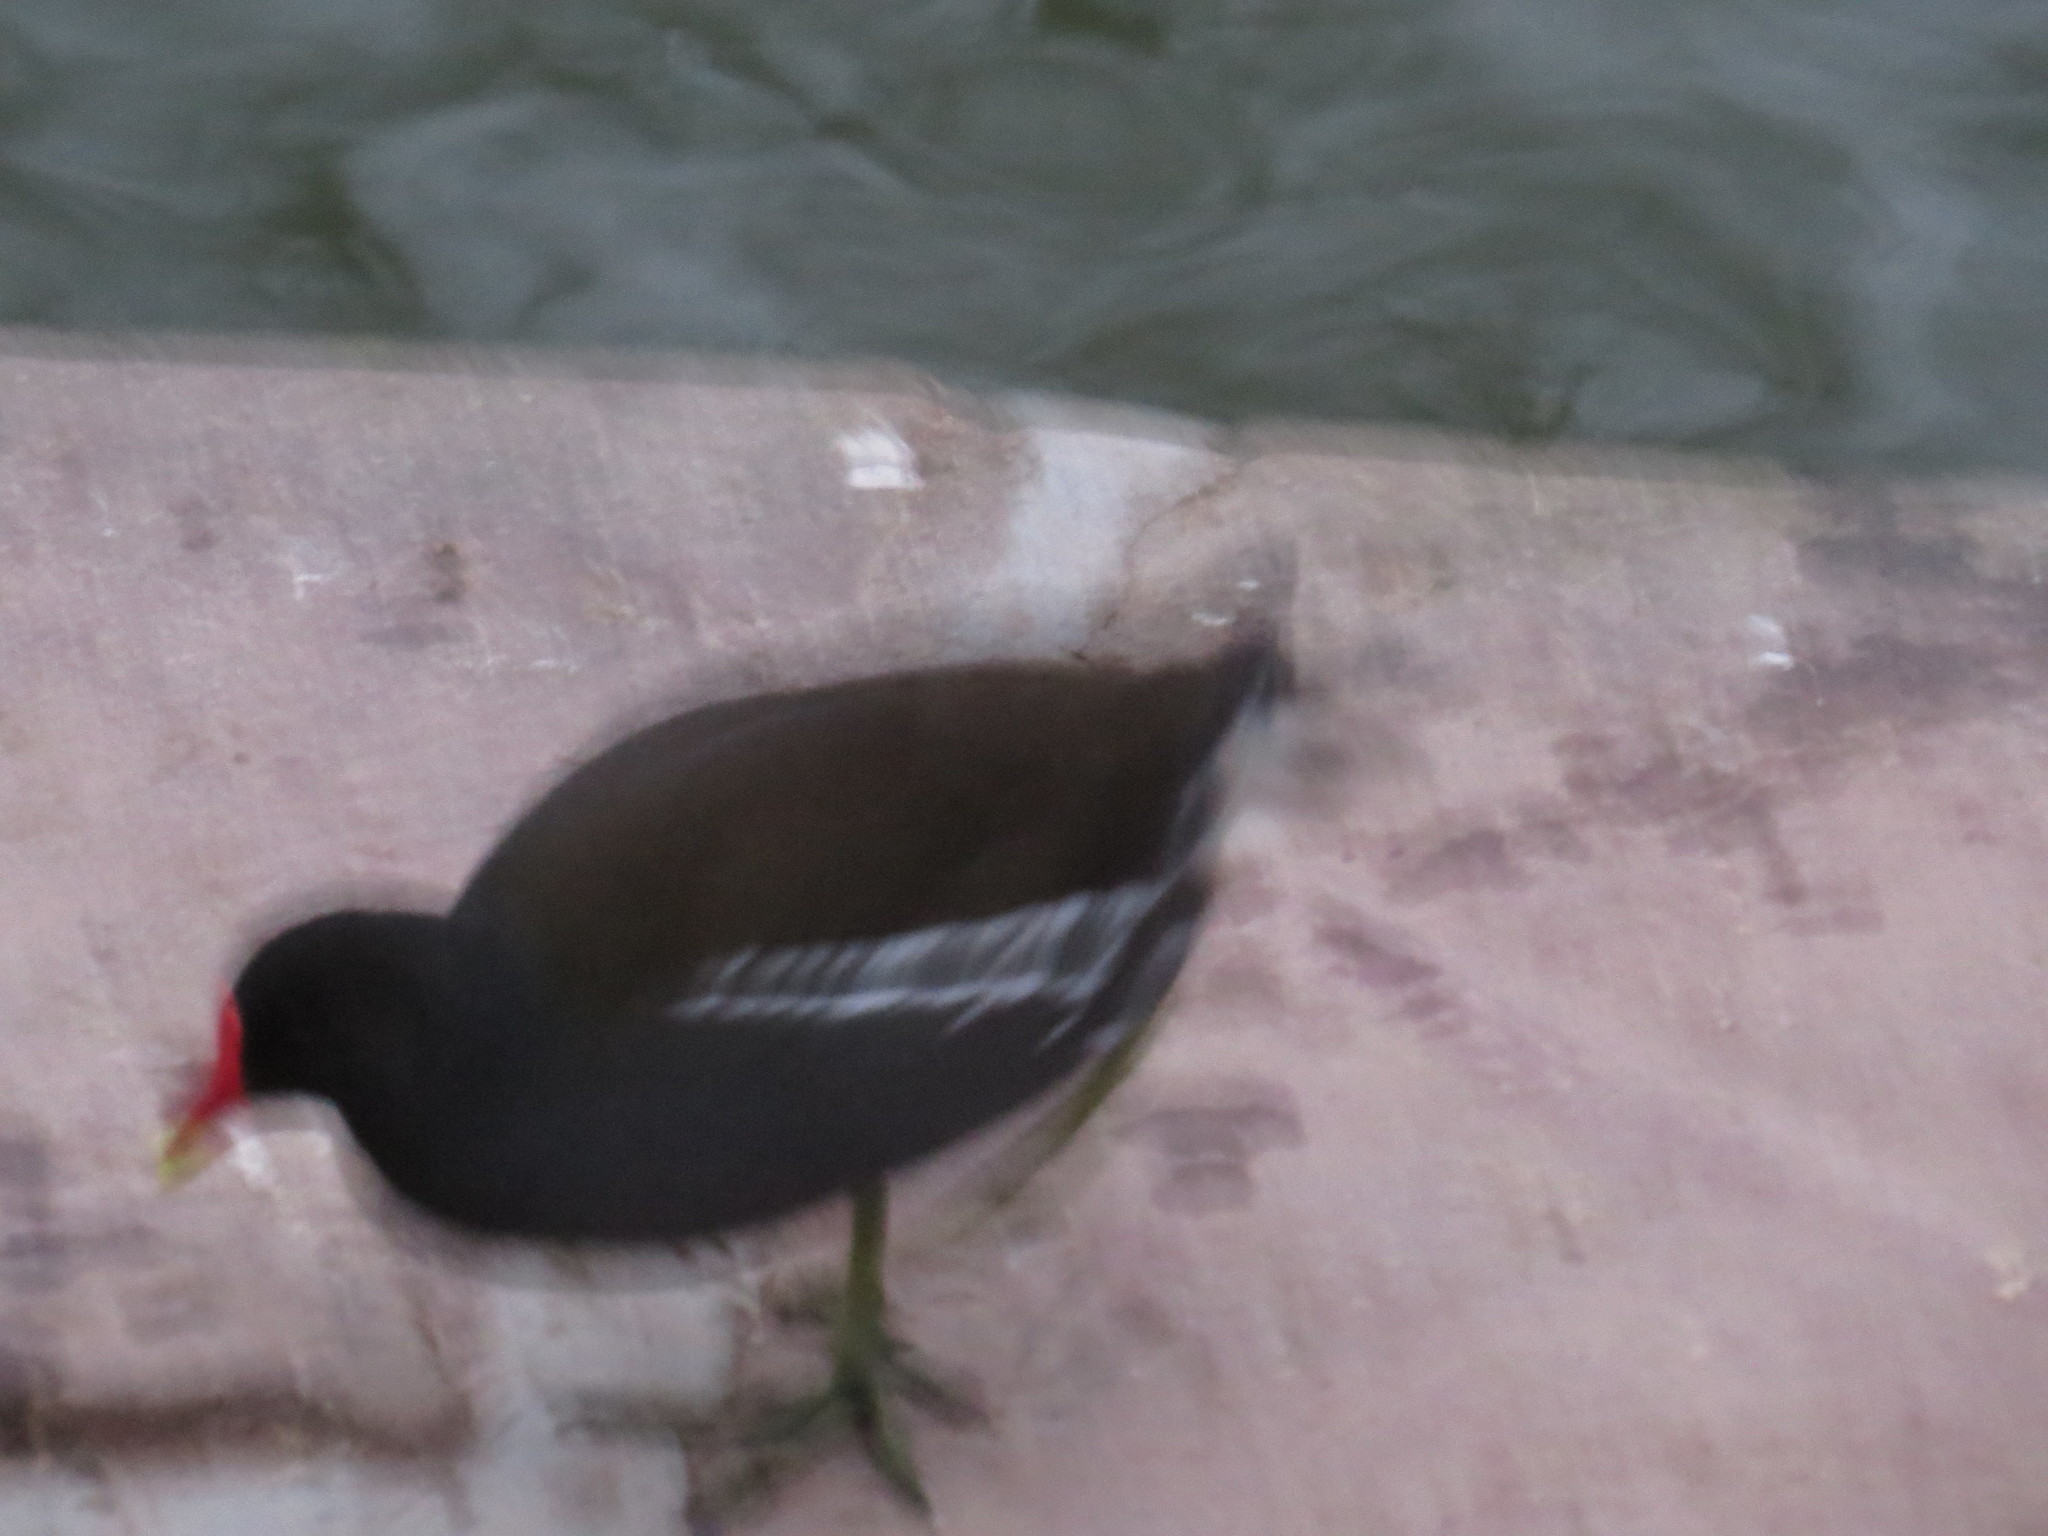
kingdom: Animalia
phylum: Chordata
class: Aves
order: Gruiformes
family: Rallidae
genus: Gallinula
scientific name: Gallinula chloropus
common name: Common moorhen
